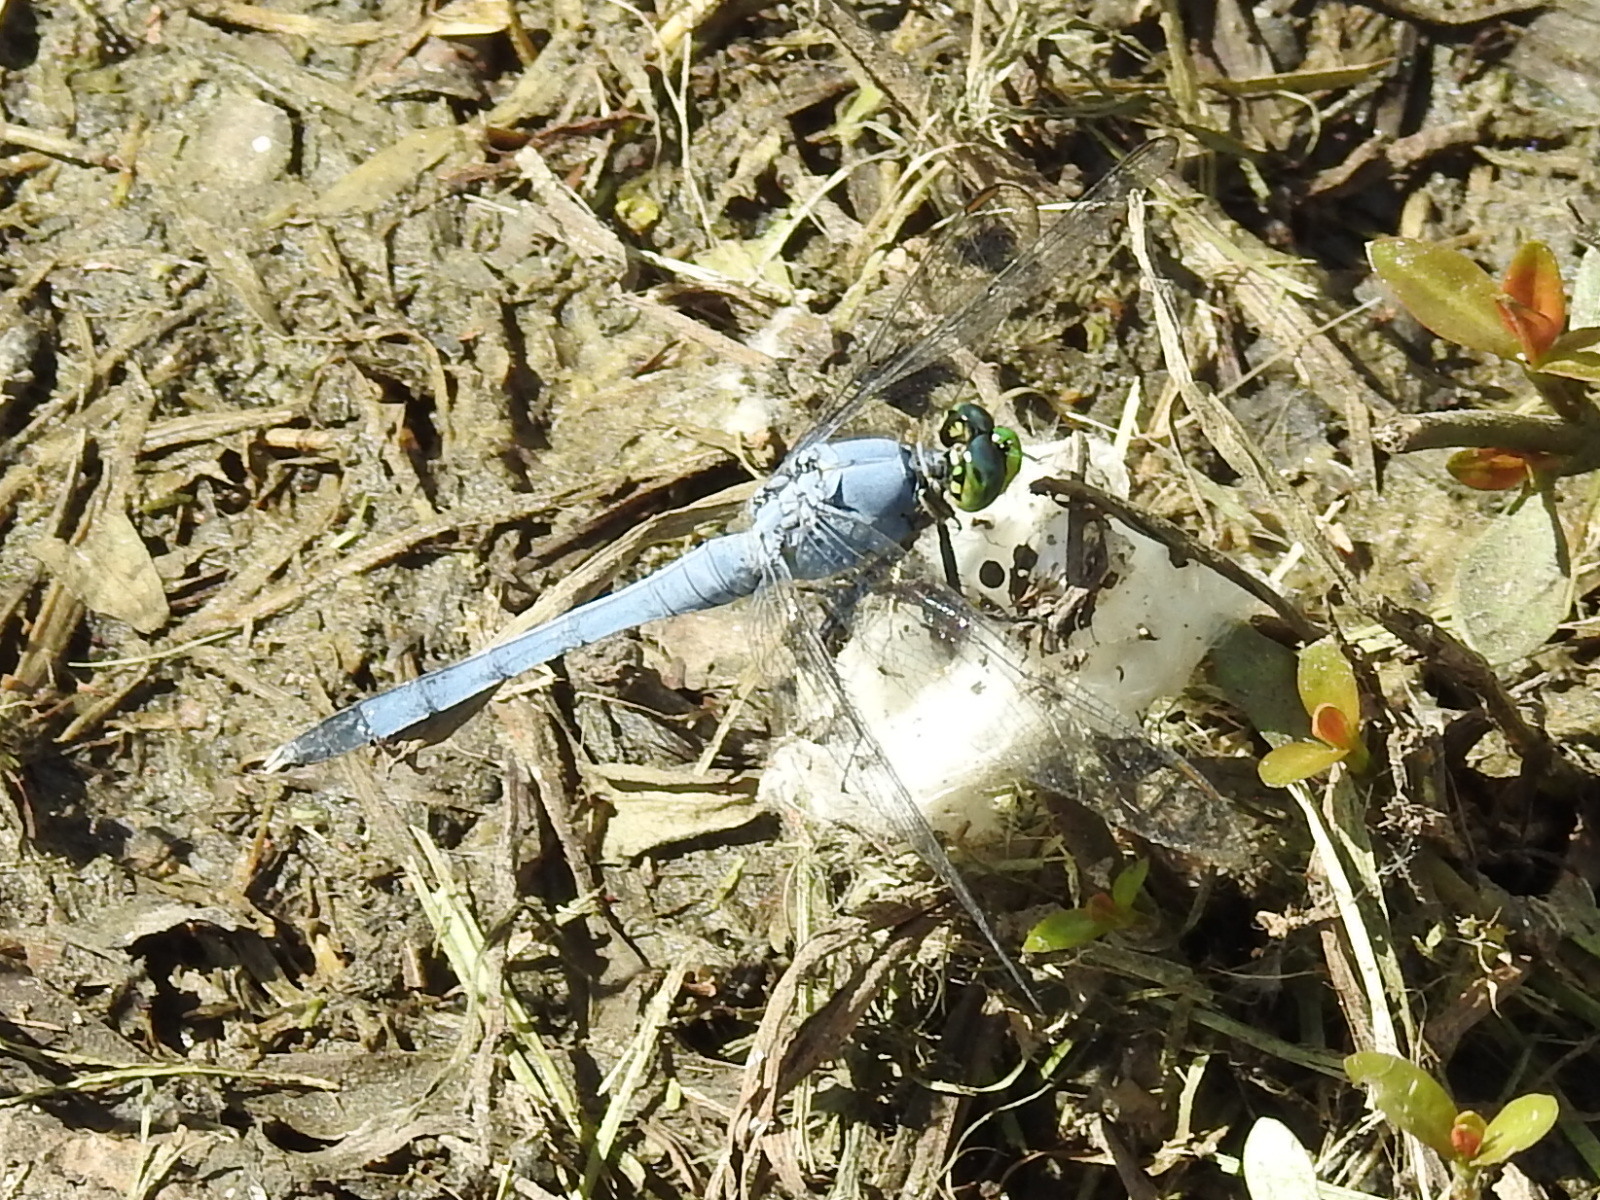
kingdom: Animalia
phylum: Arthropoda
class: Insecta
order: Odonata
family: Libellulidae
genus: Erythemis
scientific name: Erythemis simplicicollis
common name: Eastern pondhawk
